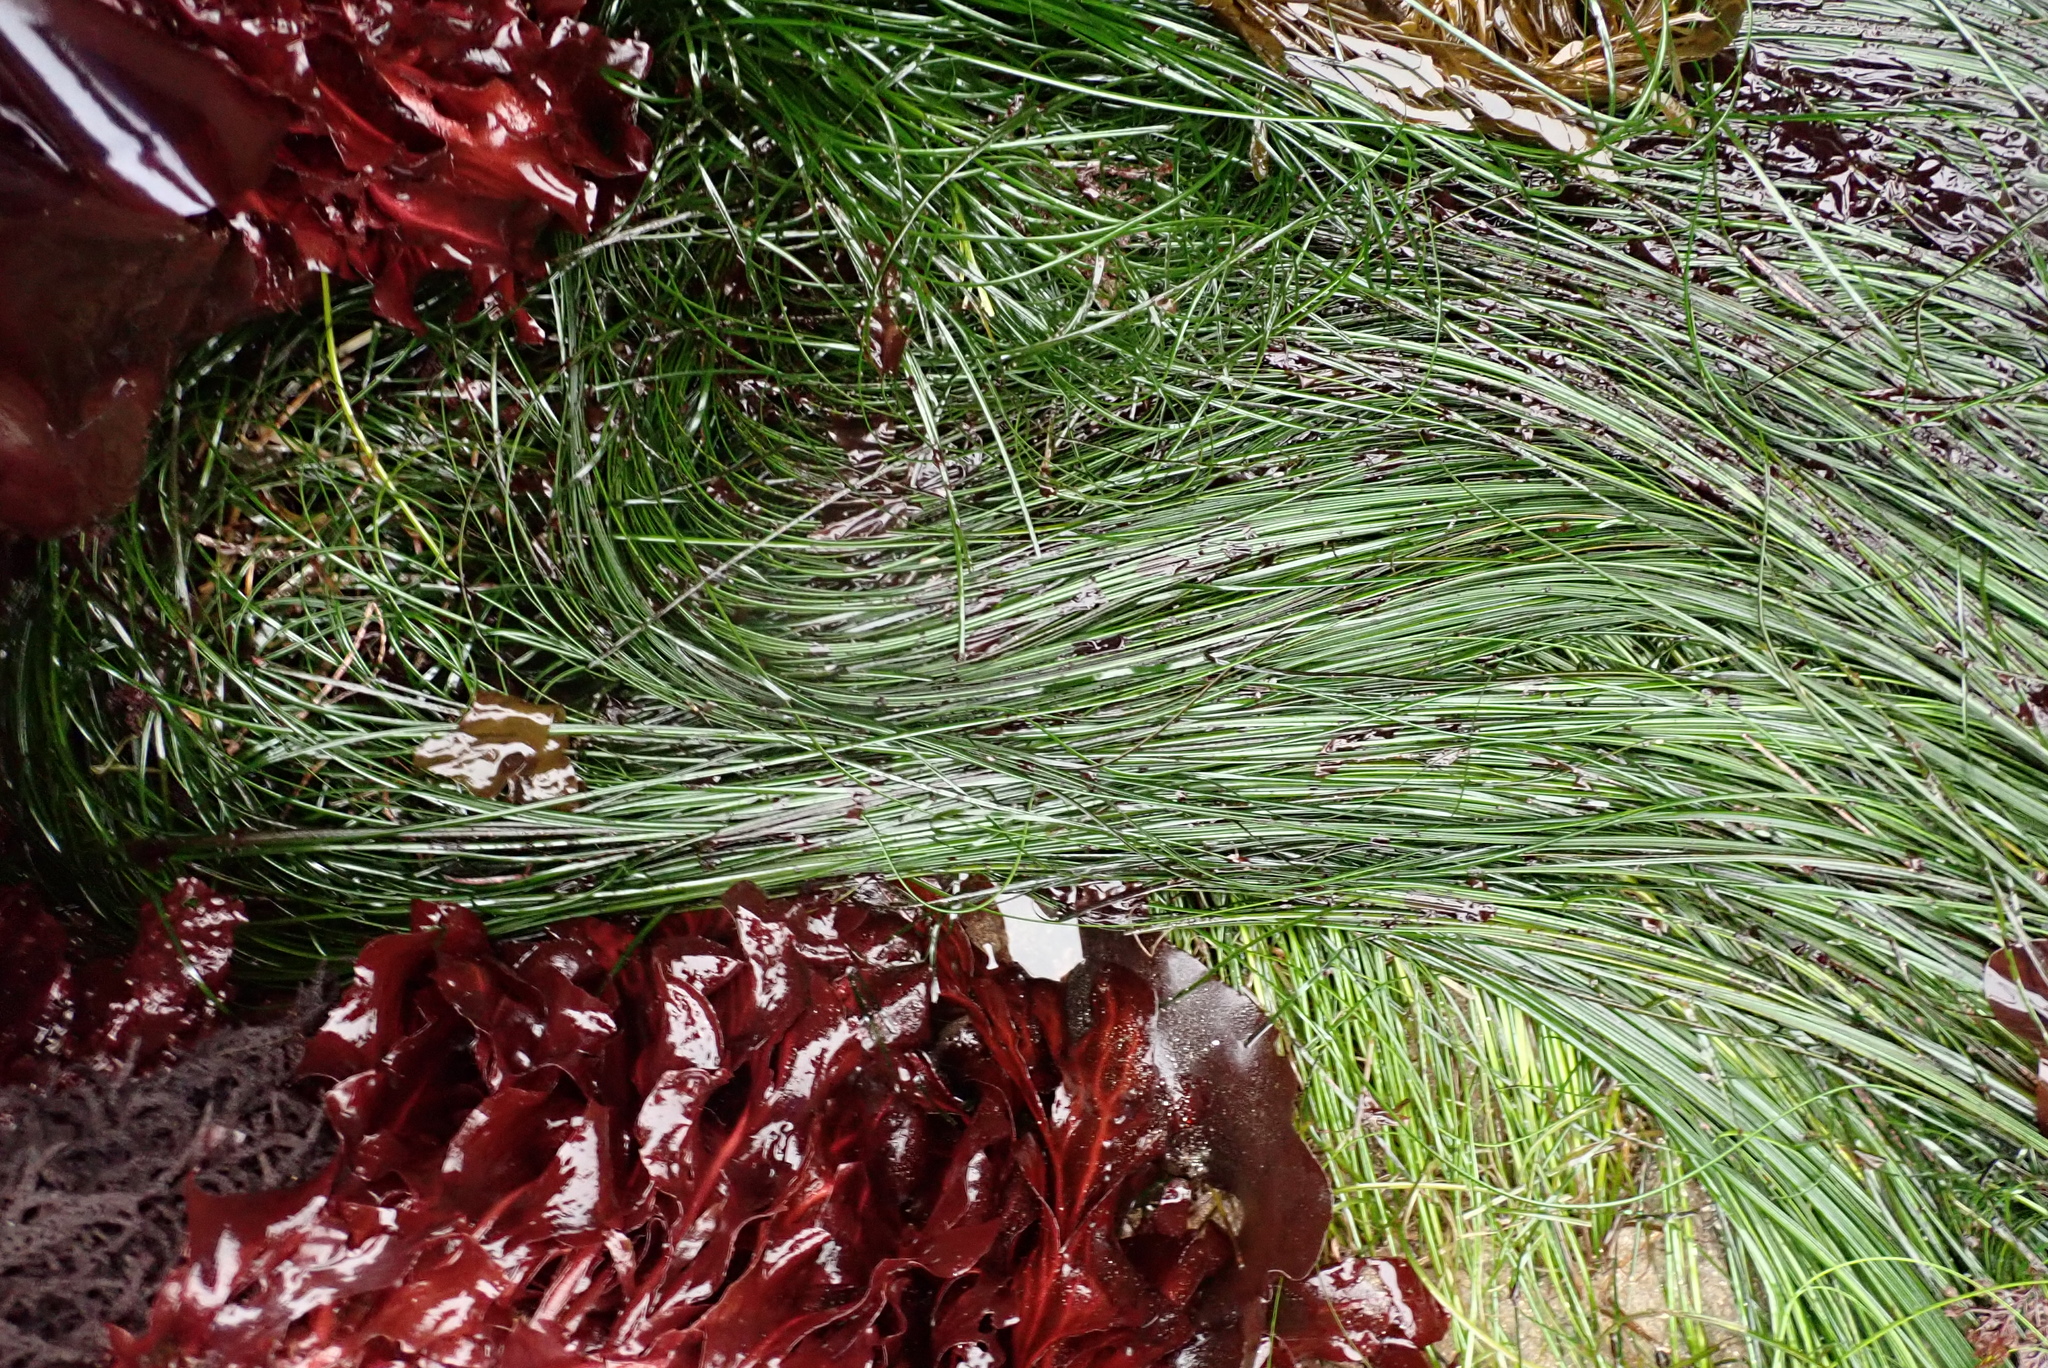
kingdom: Plantae
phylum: Tracheophyta
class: Liliopsida
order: Alismatales
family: Zosteraceae
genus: Phyllospadix
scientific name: Phyllospadix torreyi
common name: Surfgrass
